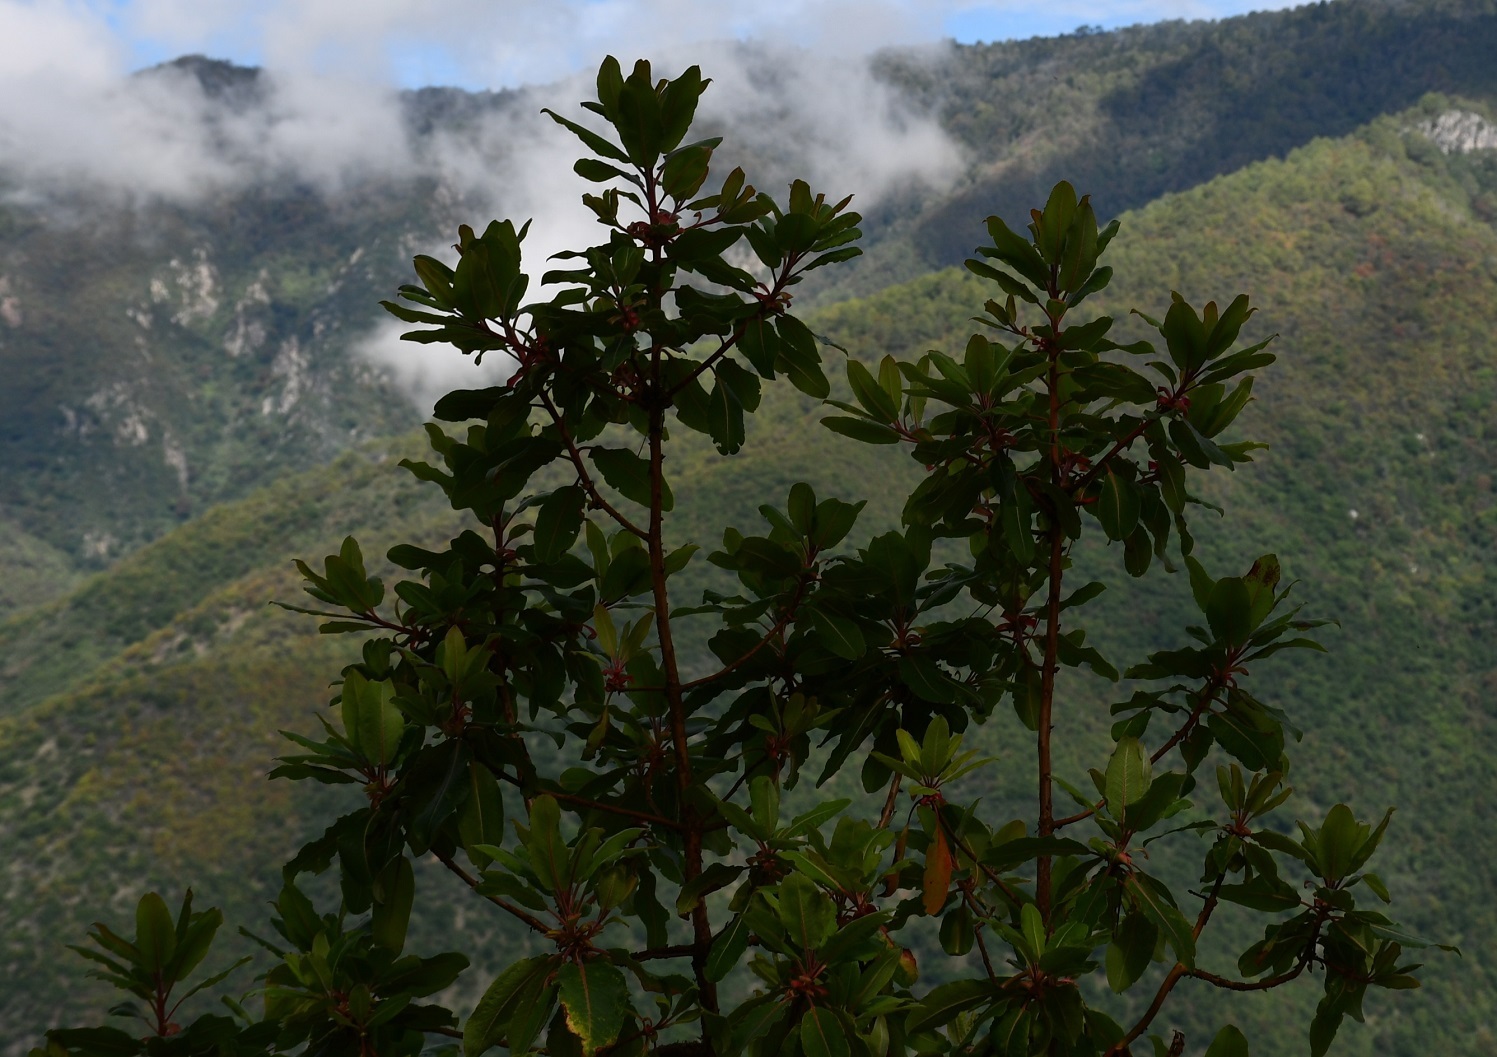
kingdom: Plantae
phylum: Tracheophyta
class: Magnoliopsida
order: Ericales
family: Ericaceae
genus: Arbutus
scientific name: Arbutus xalapensis
